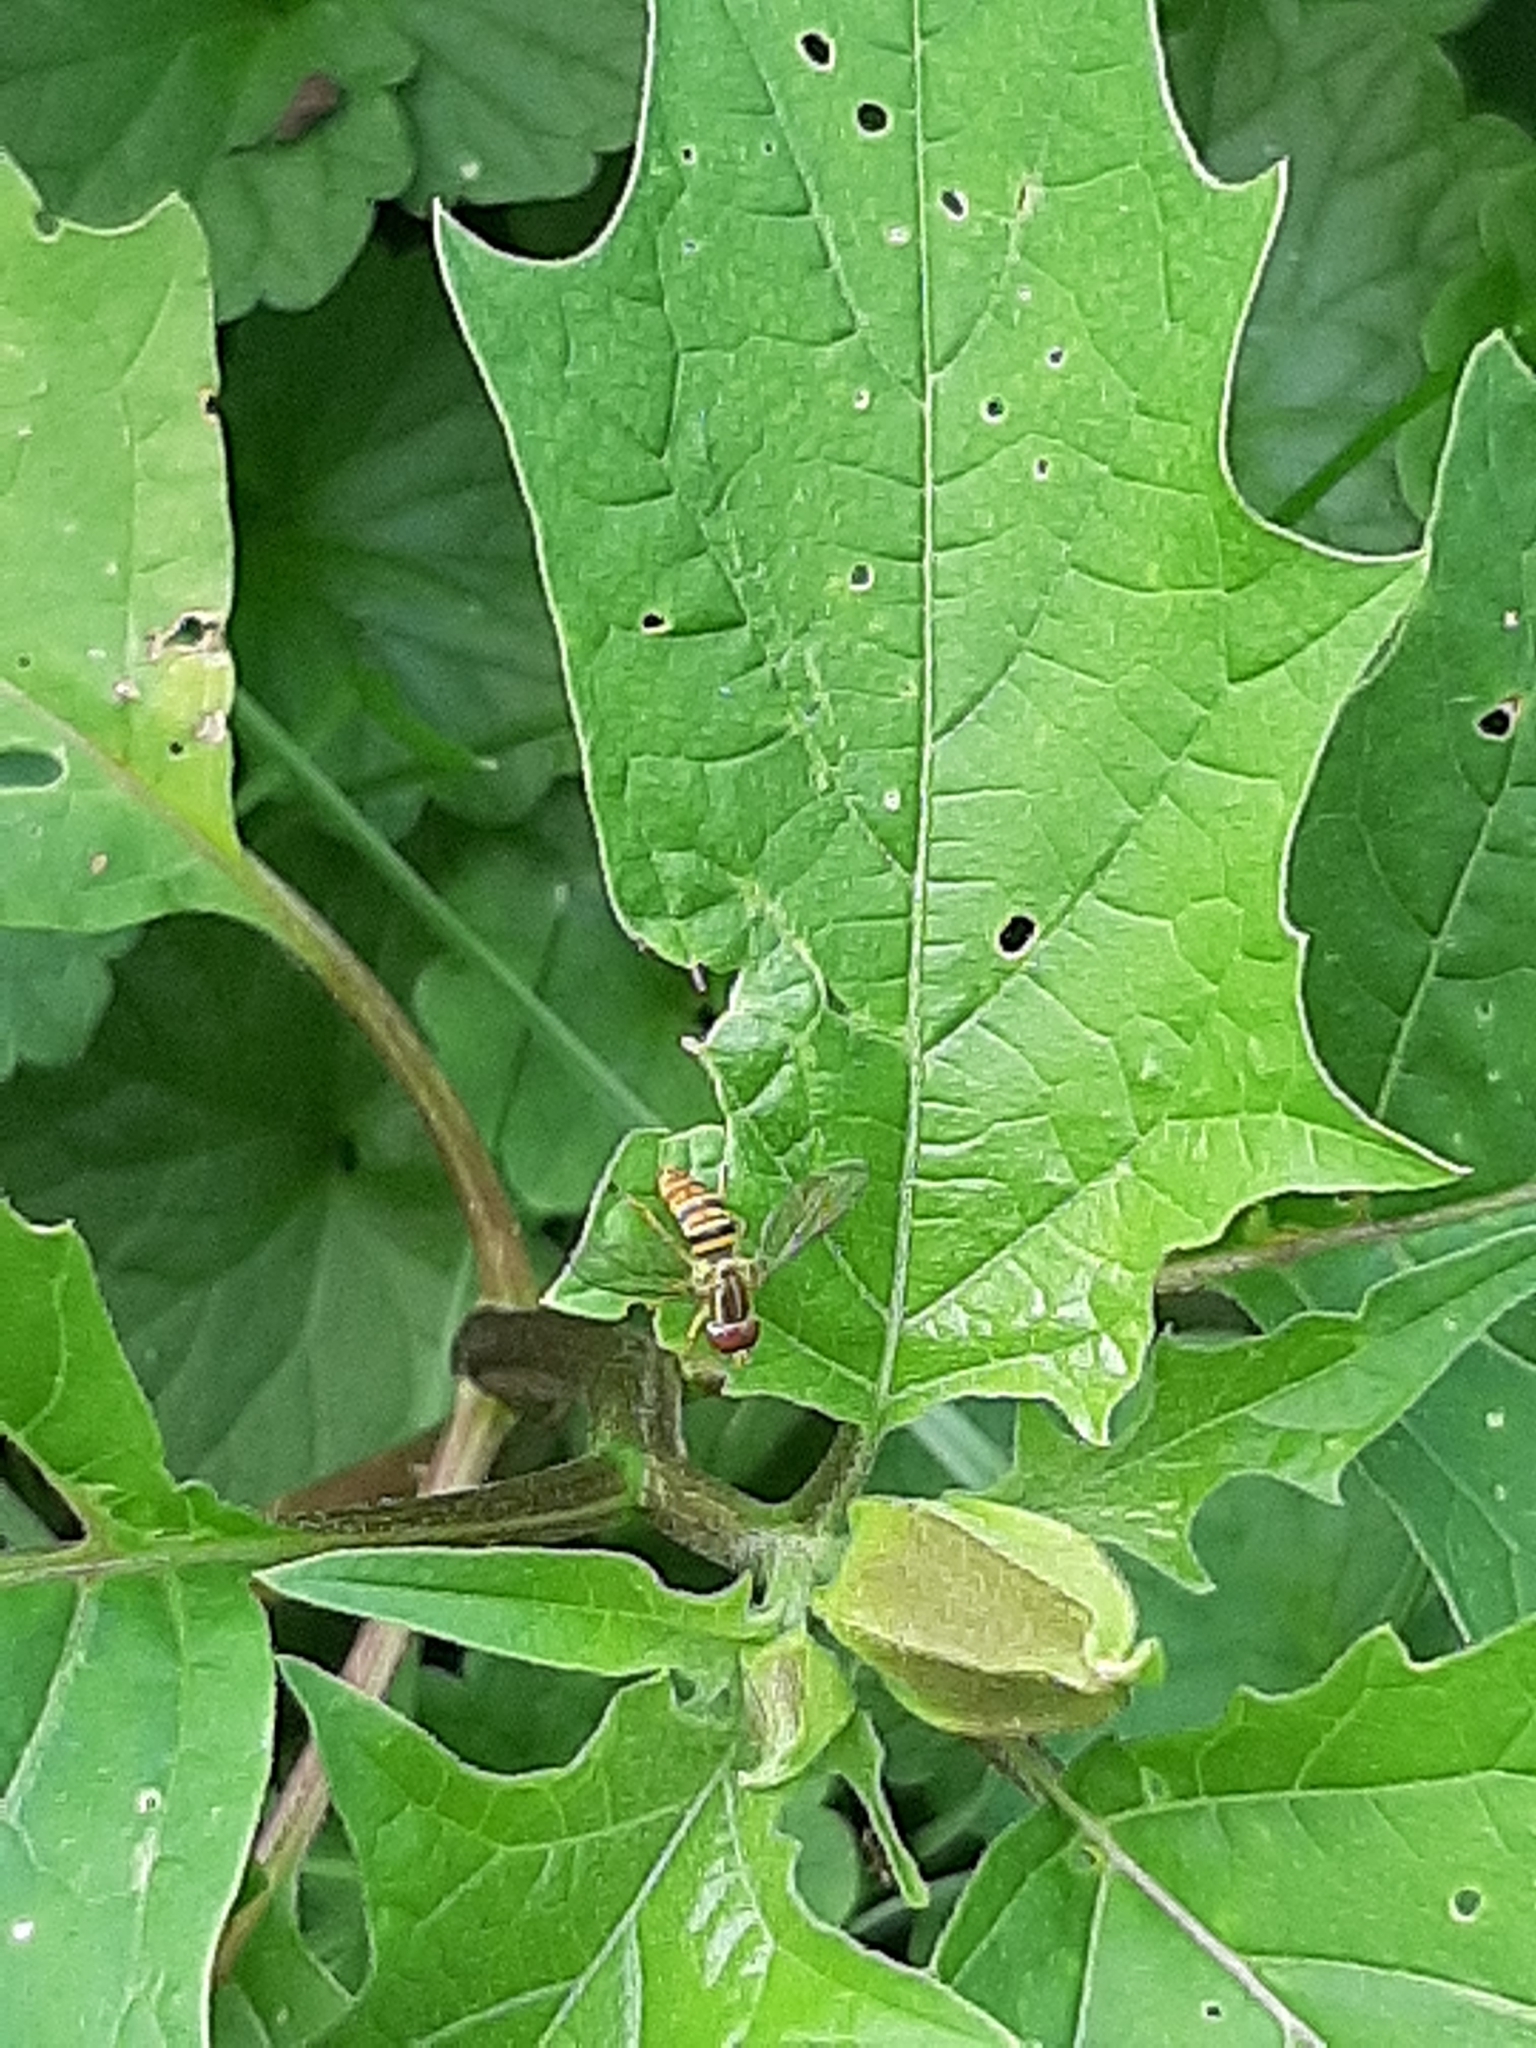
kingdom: Animalia
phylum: Arthropoda
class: Insecta
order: Diptera
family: Syrphidae
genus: Toxomerus
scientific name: Toxomerus politus
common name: Maize calligrapher
